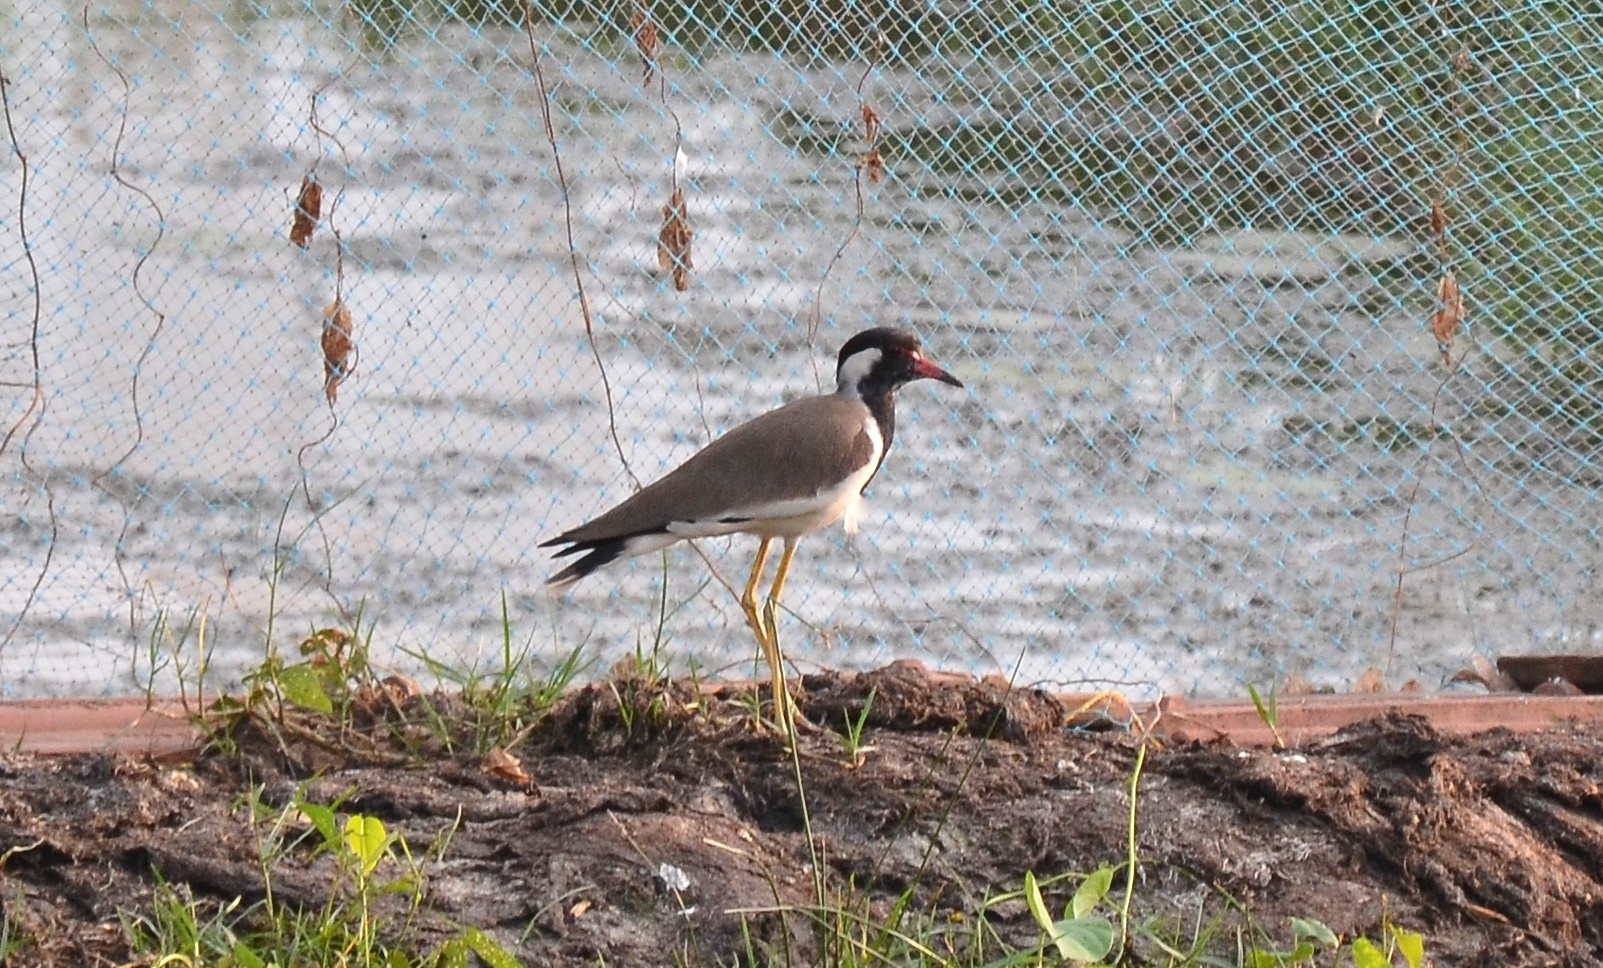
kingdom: Animalia
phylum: Chordata
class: Aves
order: Charadriiformes
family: Charadriidae
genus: Vanellus
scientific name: Vanellus indicus
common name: Red-wattled lapwing
